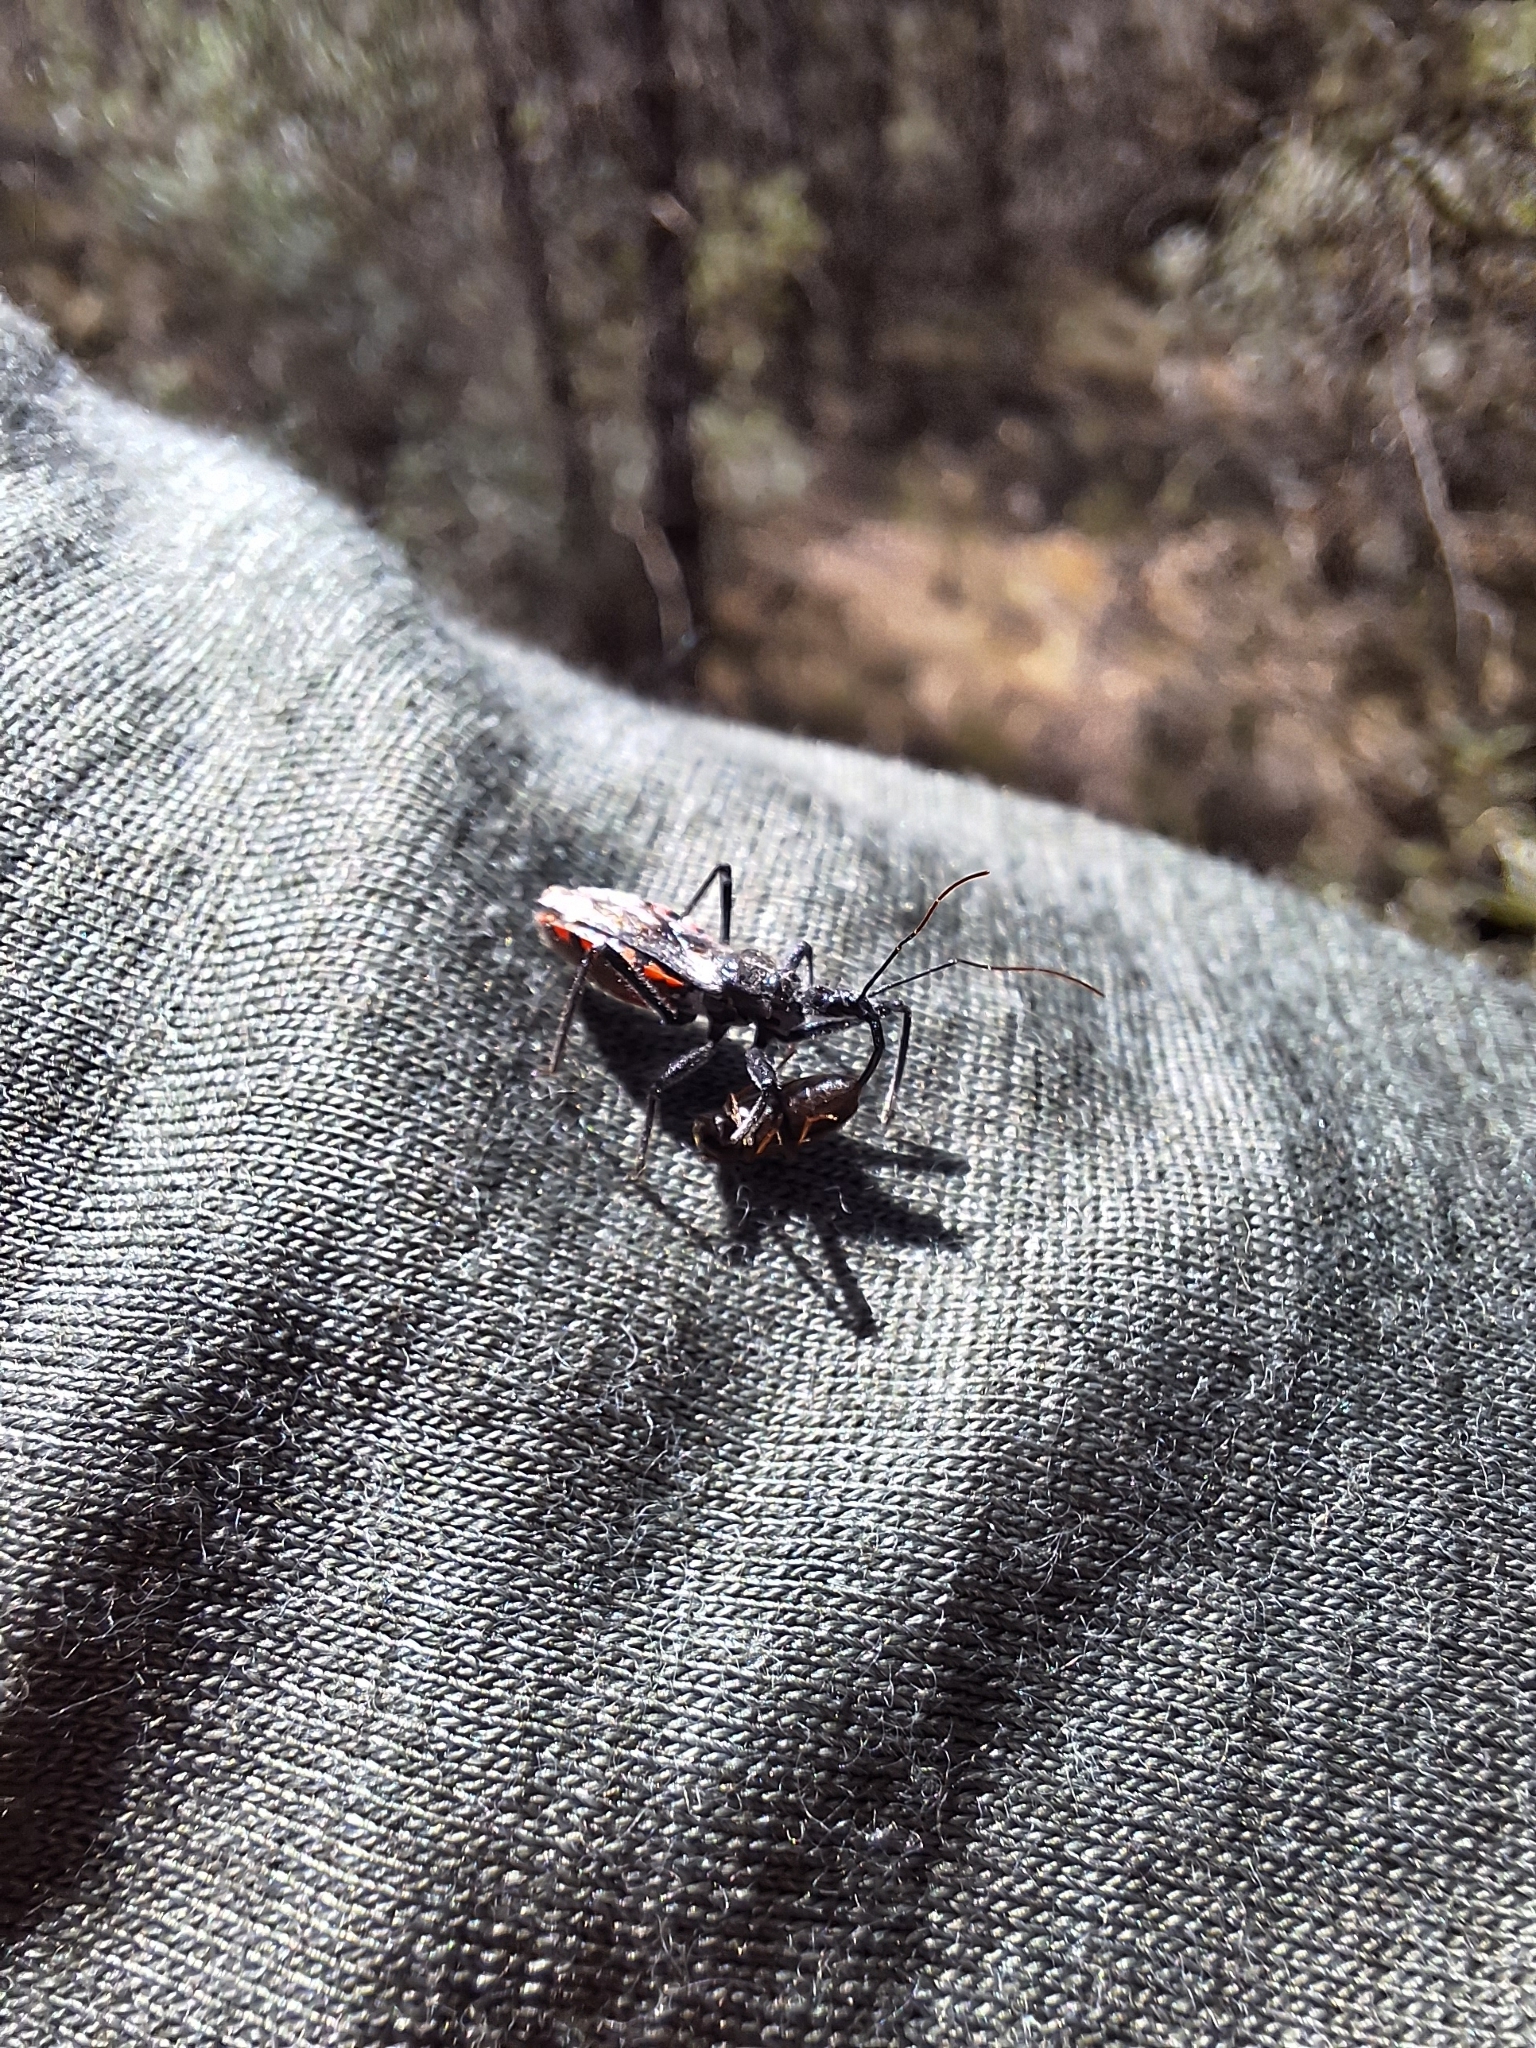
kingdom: Animalia
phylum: Arthropoda
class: Insecta
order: Hemiptera
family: Reduviidae
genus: Sphedanolestes
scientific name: Sphedanolestes sanguineus
